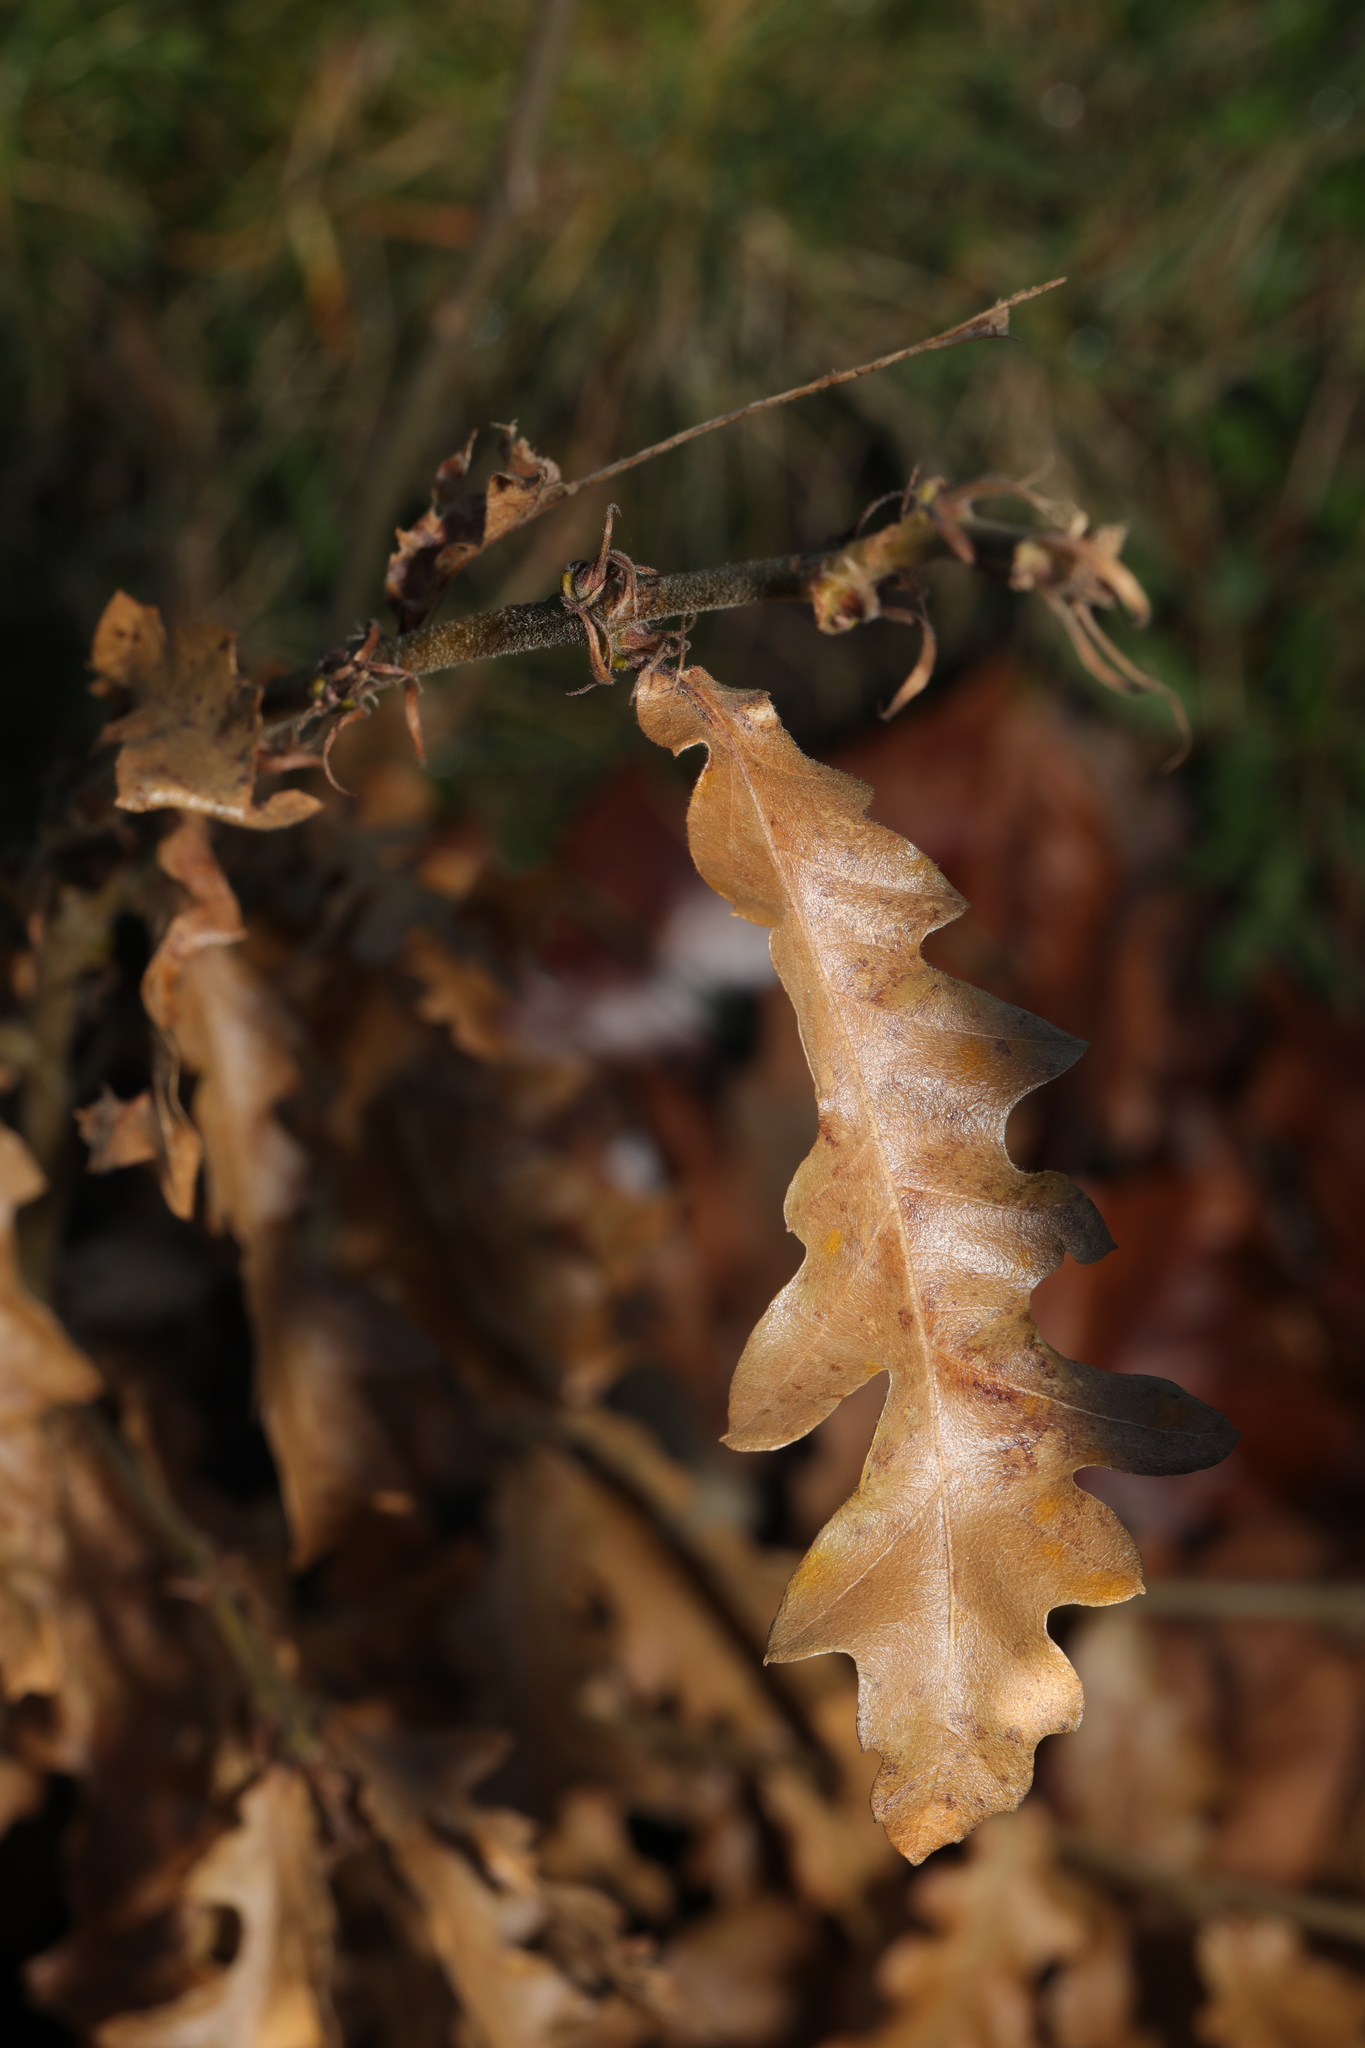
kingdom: Plantae
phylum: Tracheophyta
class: Magnoliopsida
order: Fagales
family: Fagaceae
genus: Quercus
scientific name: Quercus cerris
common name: Turkey oak
